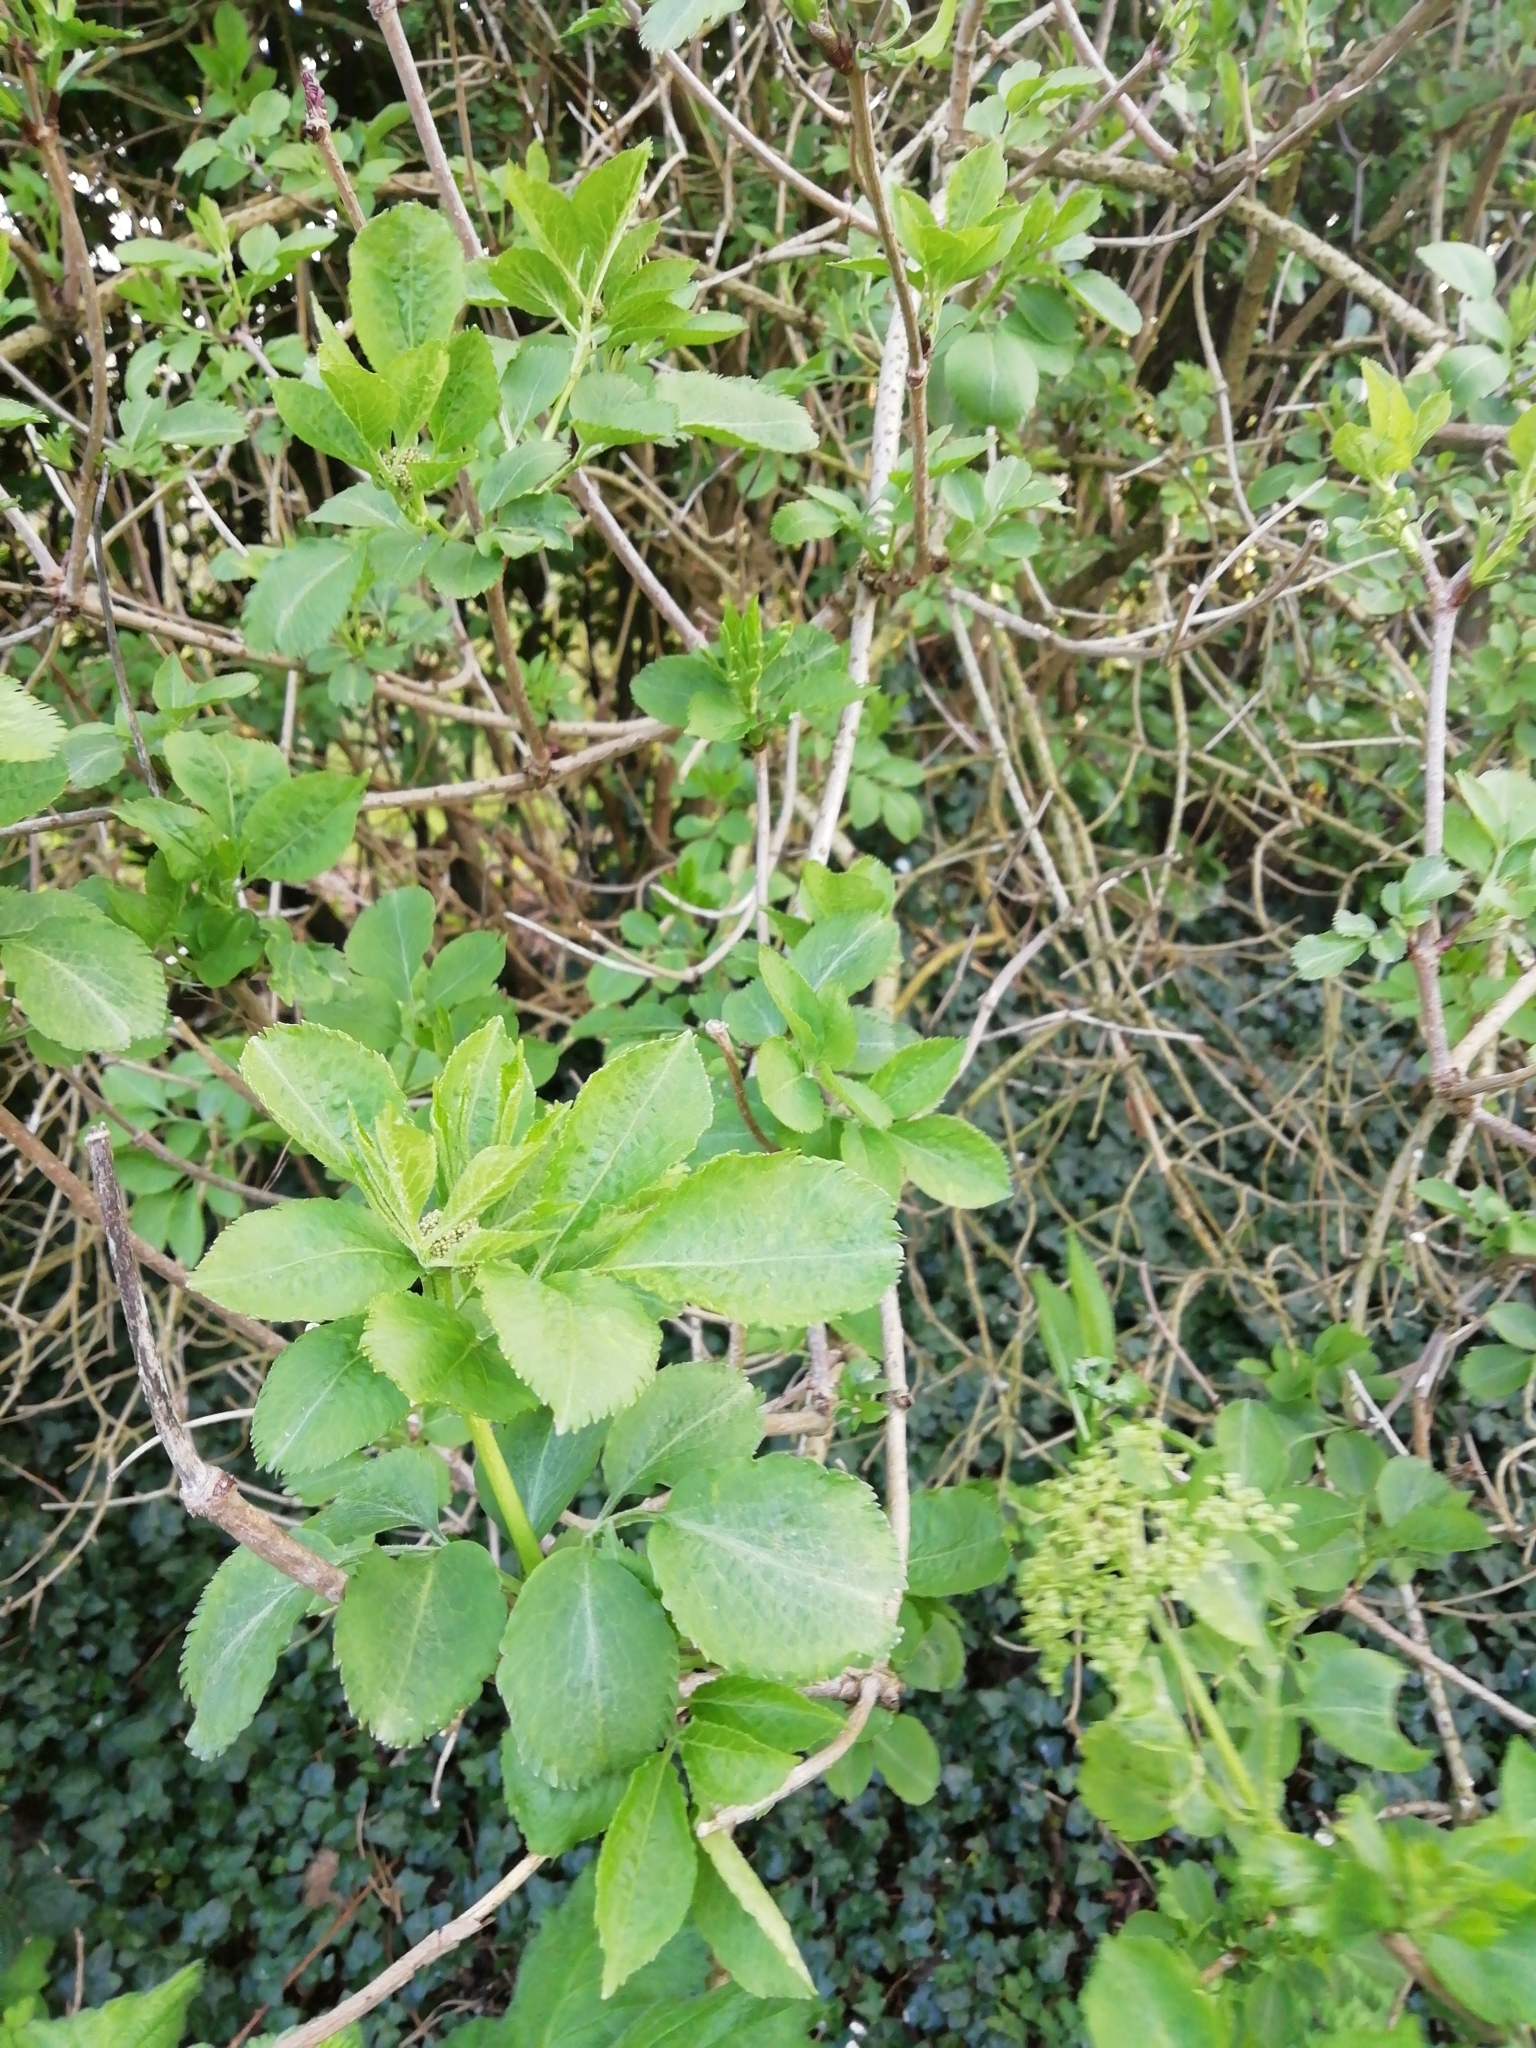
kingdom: Plantae
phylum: Tracheophyta
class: Magnoliopsida
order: Dipsacales
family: Viburnaceae
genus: Sambucus
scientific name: Sambucus nigra
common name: Elder
